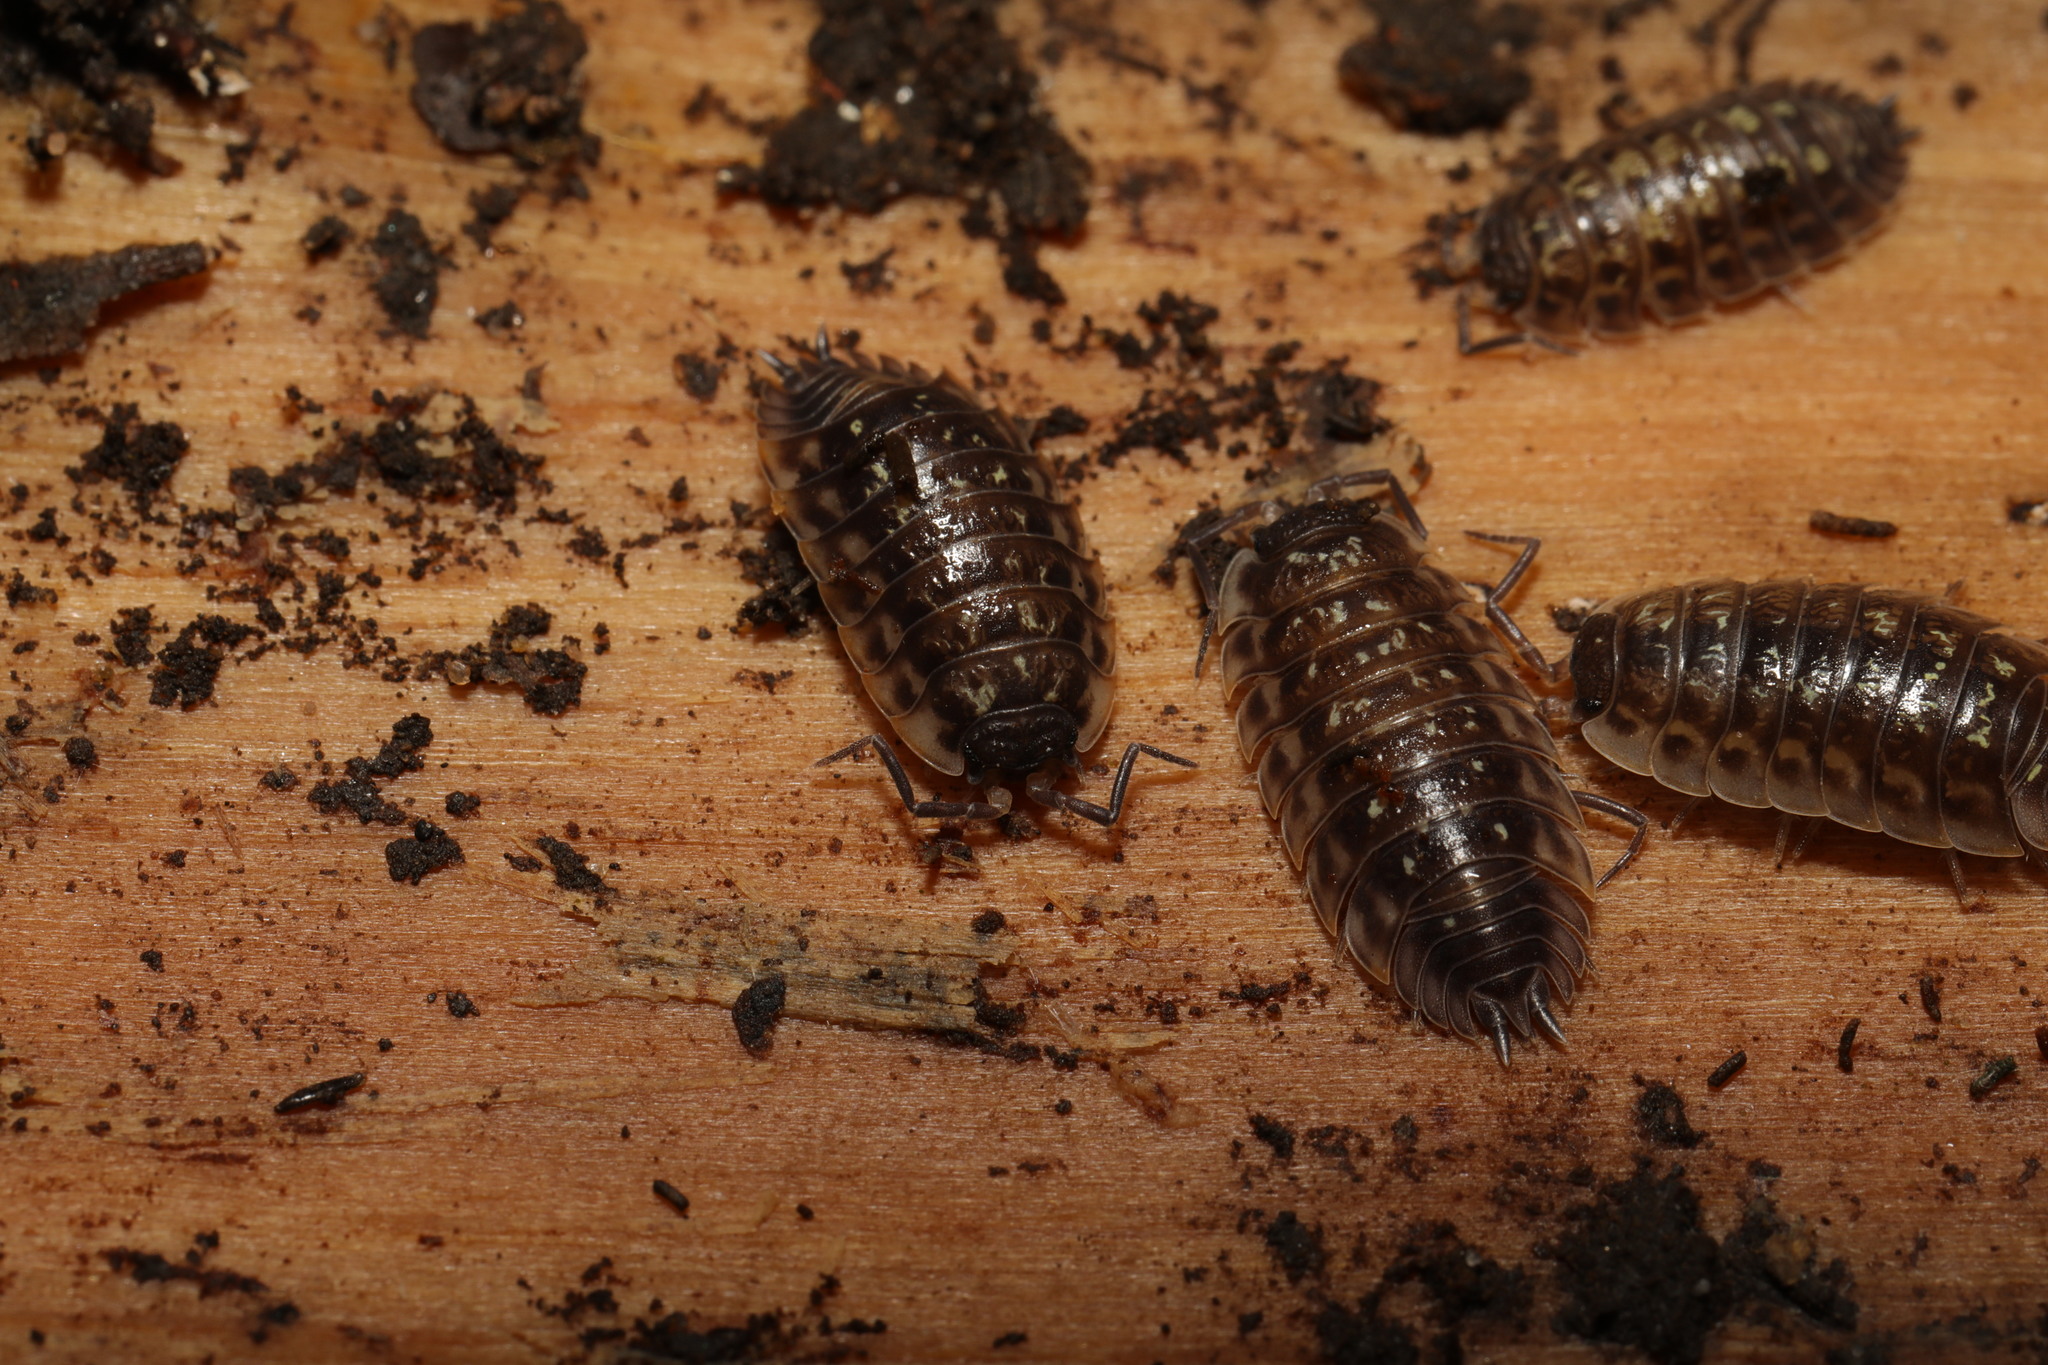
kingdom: Animalia
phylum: Arthropoda
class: Malacostraca
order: Isopoda
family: Oniscidae
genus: Oniscus
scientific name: Oniscus asellus
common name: Common shiny woodlouse
